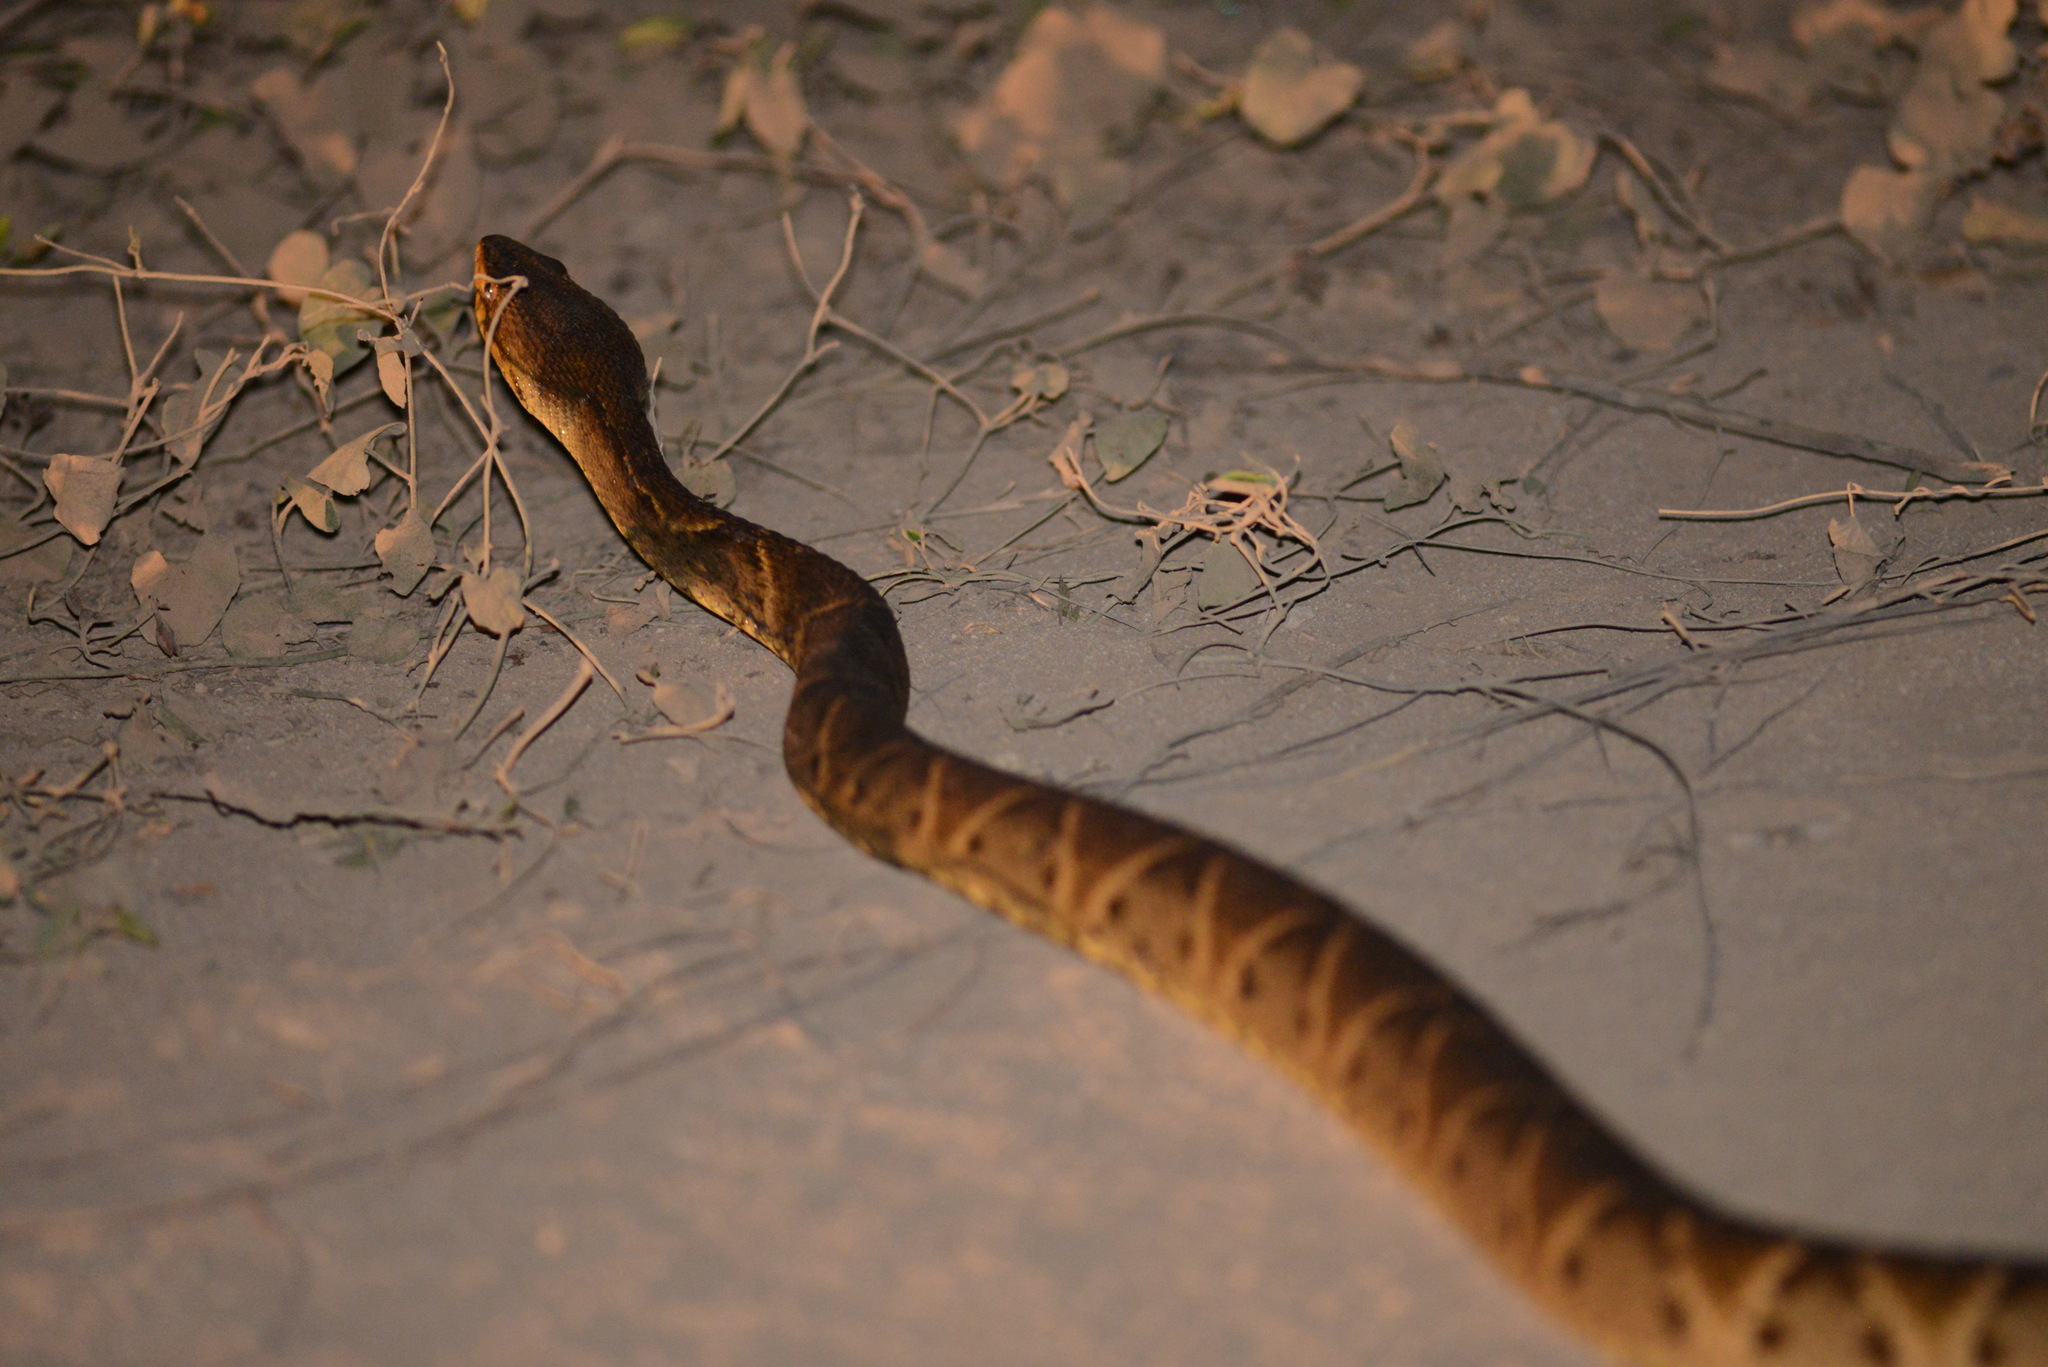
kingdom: Animalia
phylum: Chordata
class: Squamata
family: Viperidae
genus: Bothrops
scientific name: Bothrops moojeni
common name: Brazilian lancehead
